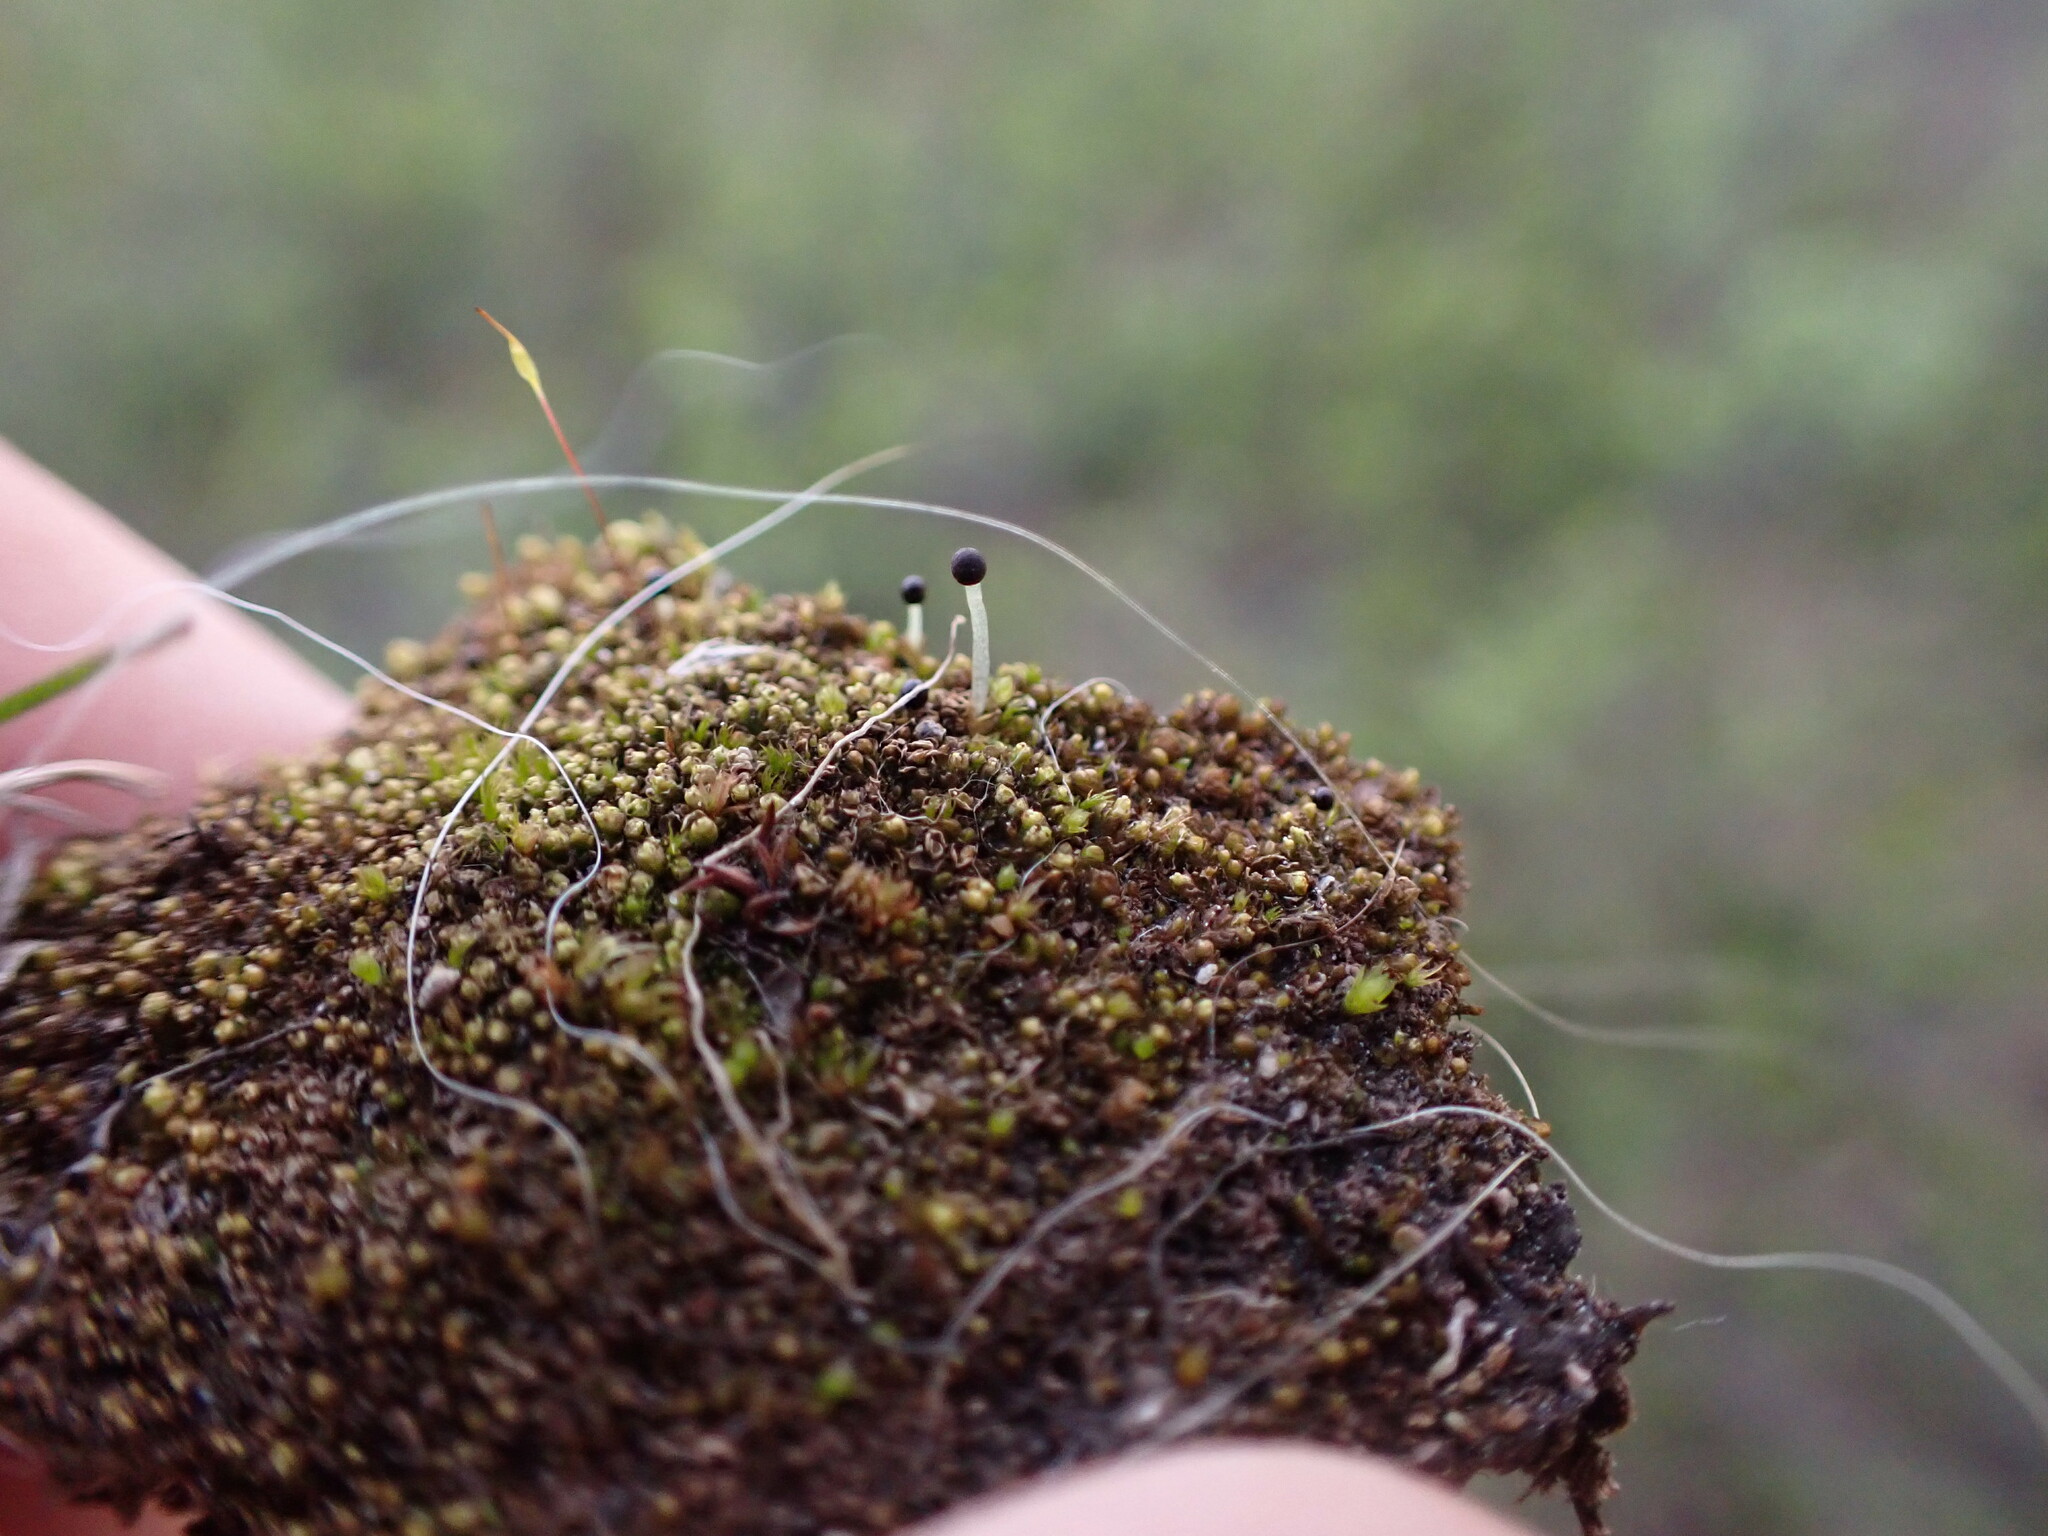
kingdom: Plantae
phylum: Marchantiophyta
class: Jungermanniopsida
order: Jungermanniales
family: Anastrophyllaceae
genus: Schljakovia
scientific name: Schljakovia kunzeana
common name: Kunze's pawwort
